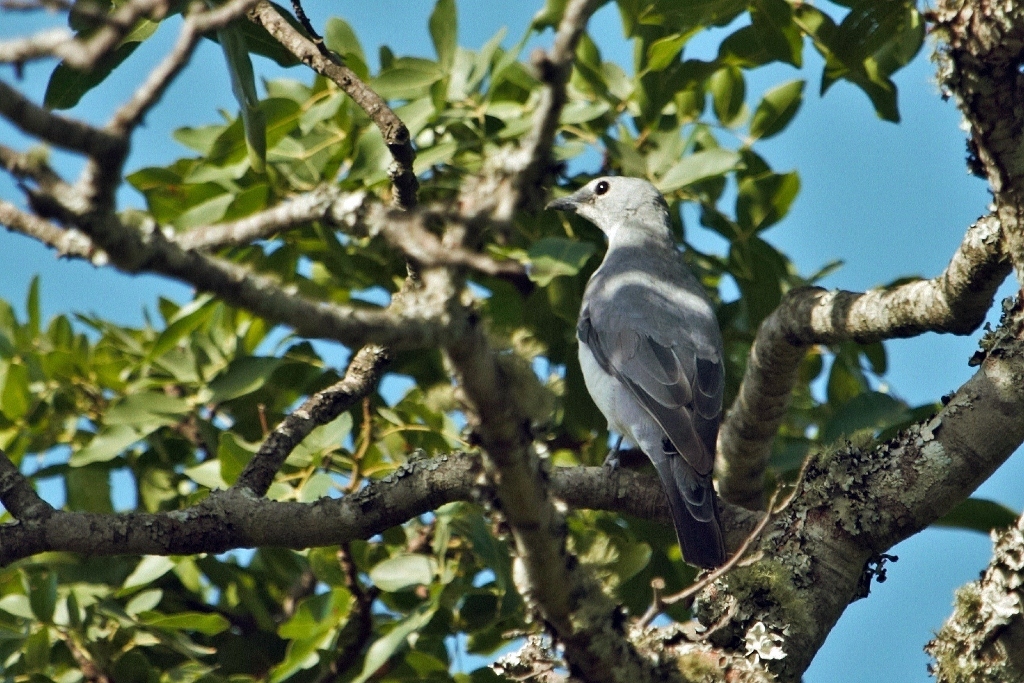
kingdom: Animalia
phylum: Chordata
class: Aves
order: Passeriformes
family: Campephagidae
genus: Coracina
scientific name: Coracina pectoralis
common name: White-breasted cuckooshrike
